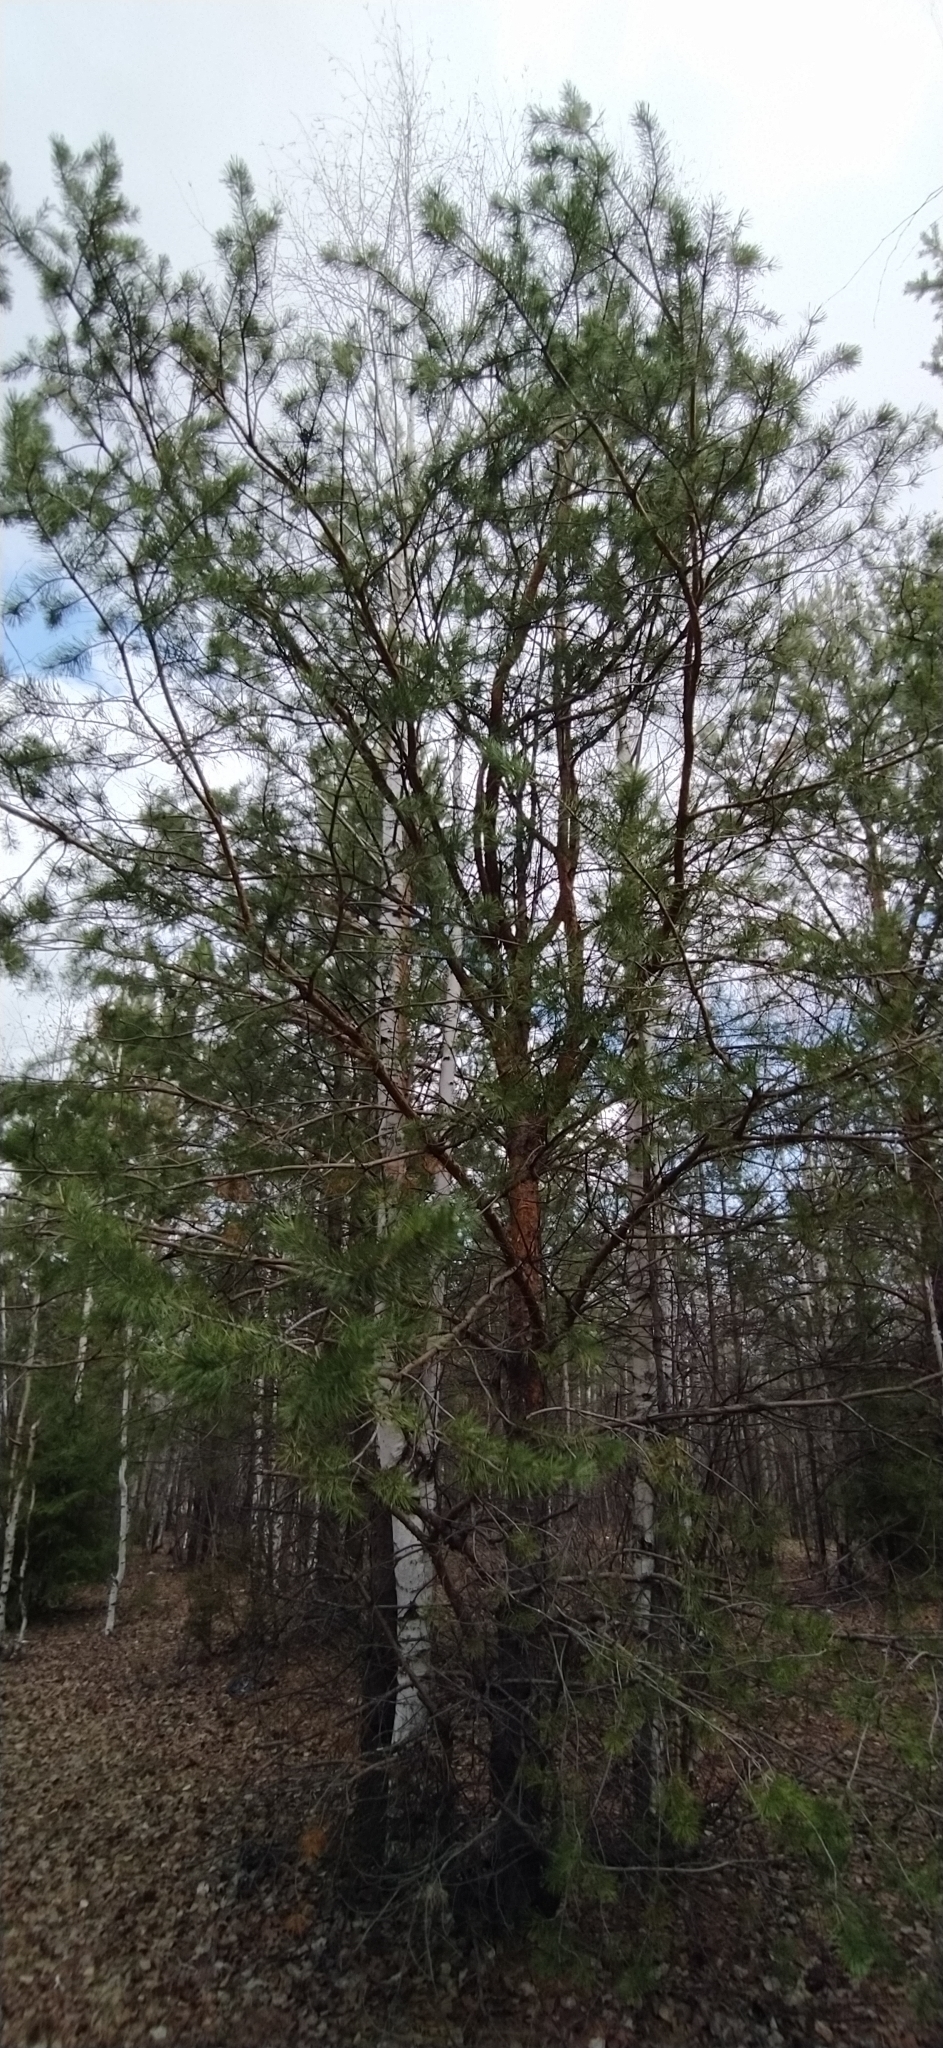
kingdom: Plantae
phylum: Tracheophyta
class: Pinopsida
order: Pinales
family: Pinaceae
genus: Pinus
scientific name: Pinus sylvestris
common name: Scots pine
